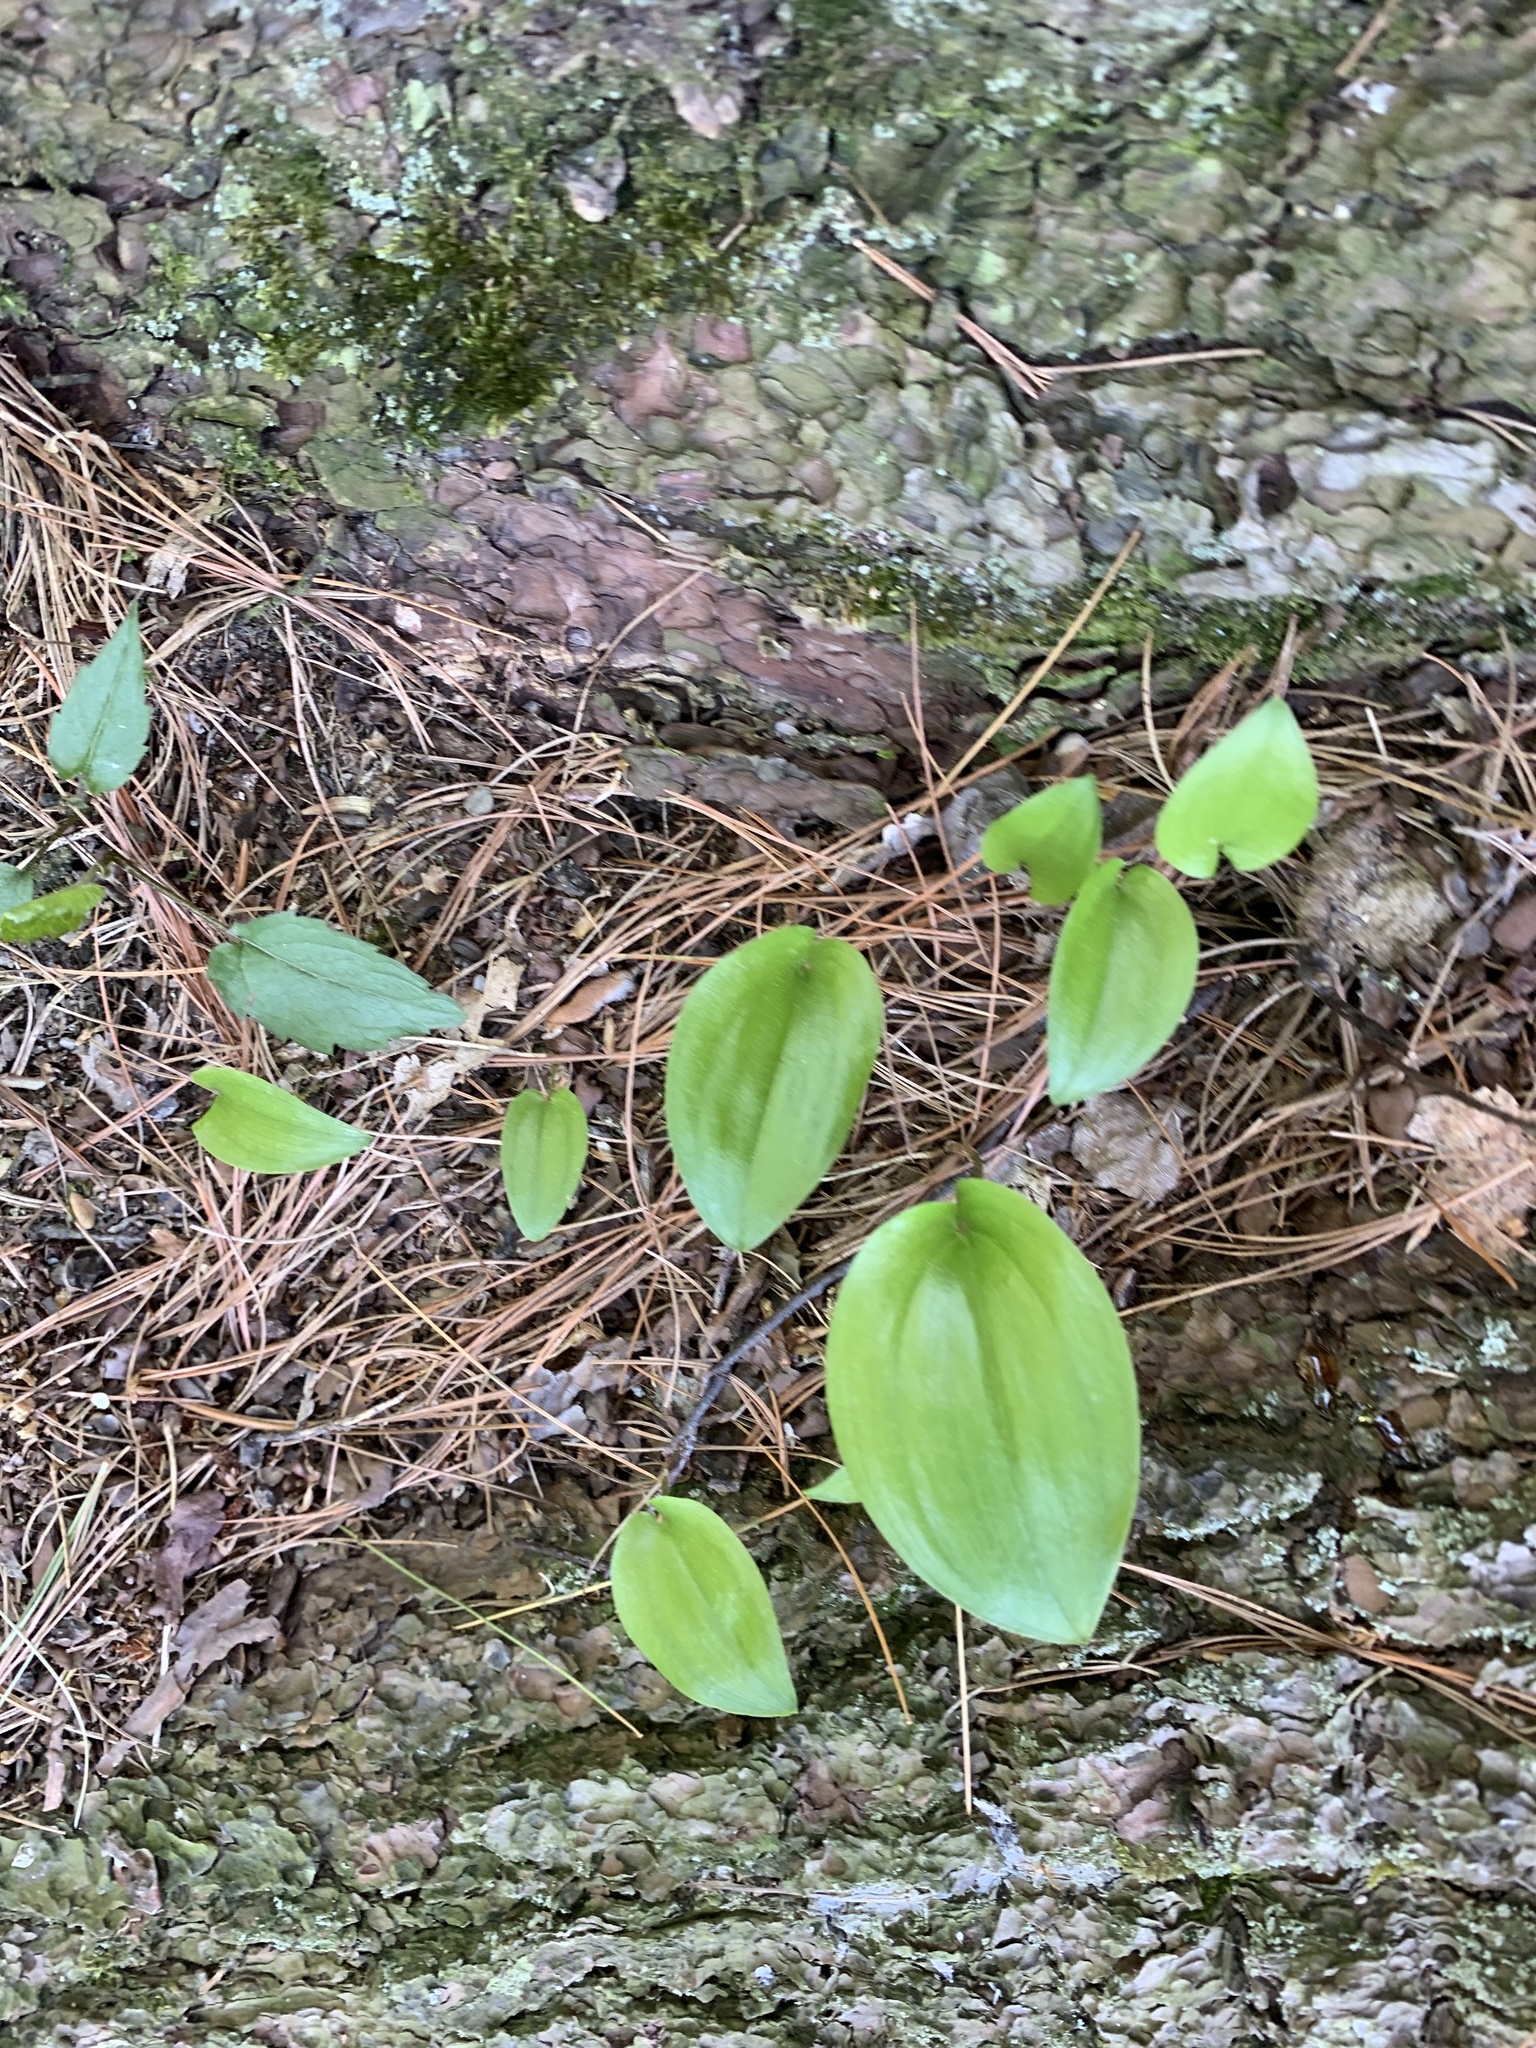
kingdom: Plantae
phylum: Tracheophyta
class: Liliopsida
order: Asparagales
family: Asparagaceae
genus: Maianthemum
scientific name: Maianthemum canadense
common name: False lily-of-the-valley
